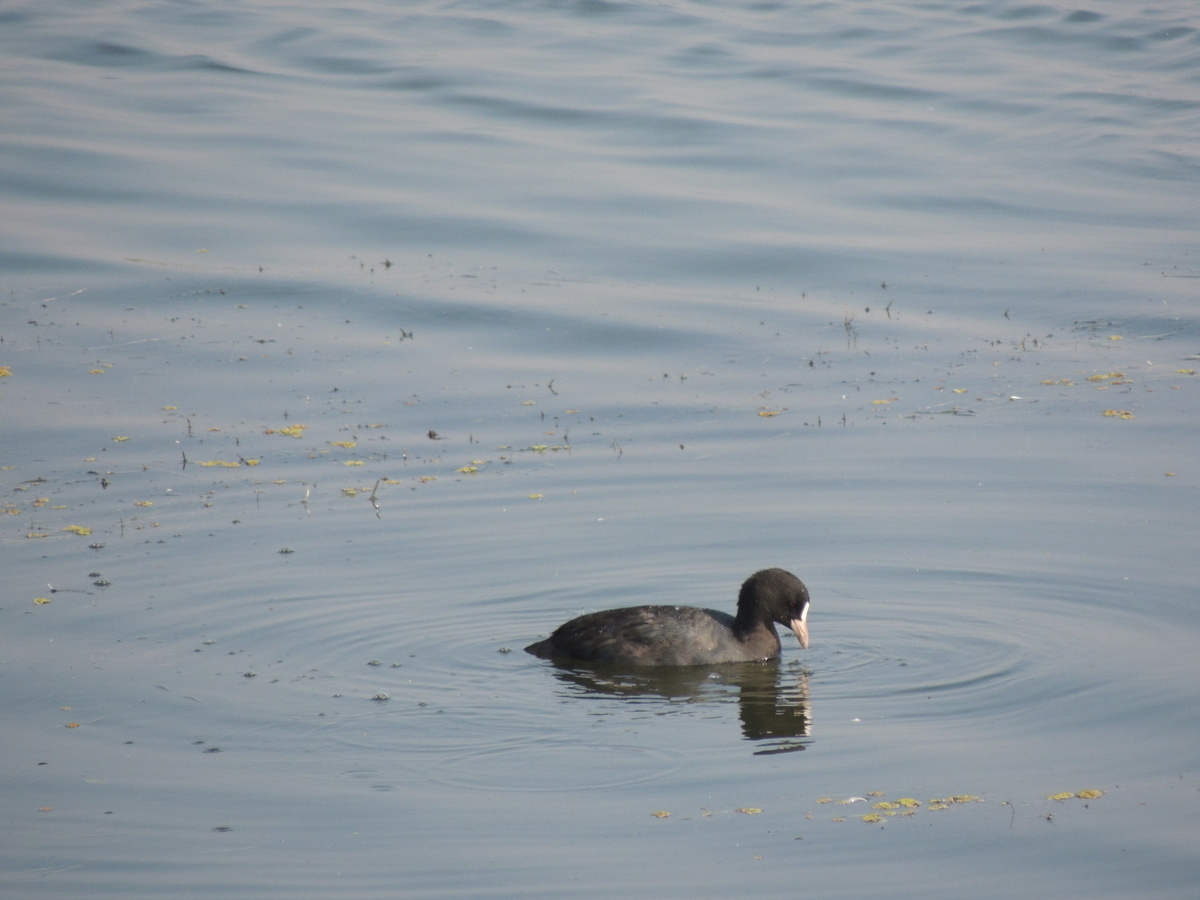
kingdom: Animalia
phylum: Chordata
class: Aves
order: Gruiformes
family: Rallidae
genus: Fulica
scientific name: Fulica atra
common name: Eurasian coot
